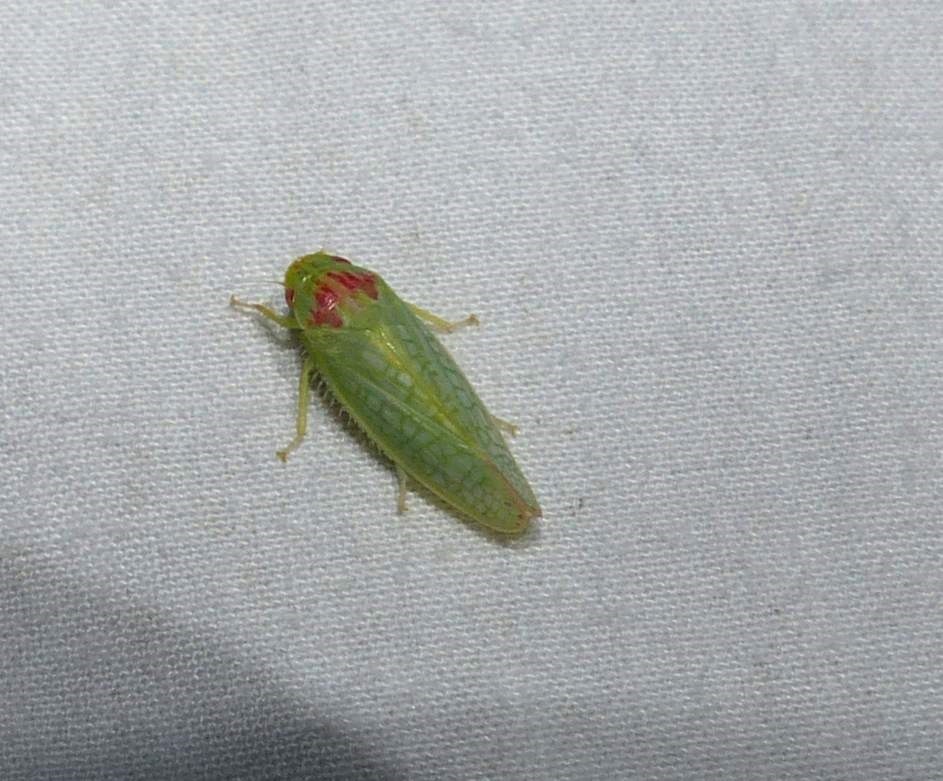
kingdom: Animalia
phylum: Arthropoda
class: Insecta
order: Hemiptera
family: Cicadellidae
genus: Gyponana
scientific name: Gyponana octolineata
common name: Eight-lined leafhopper
